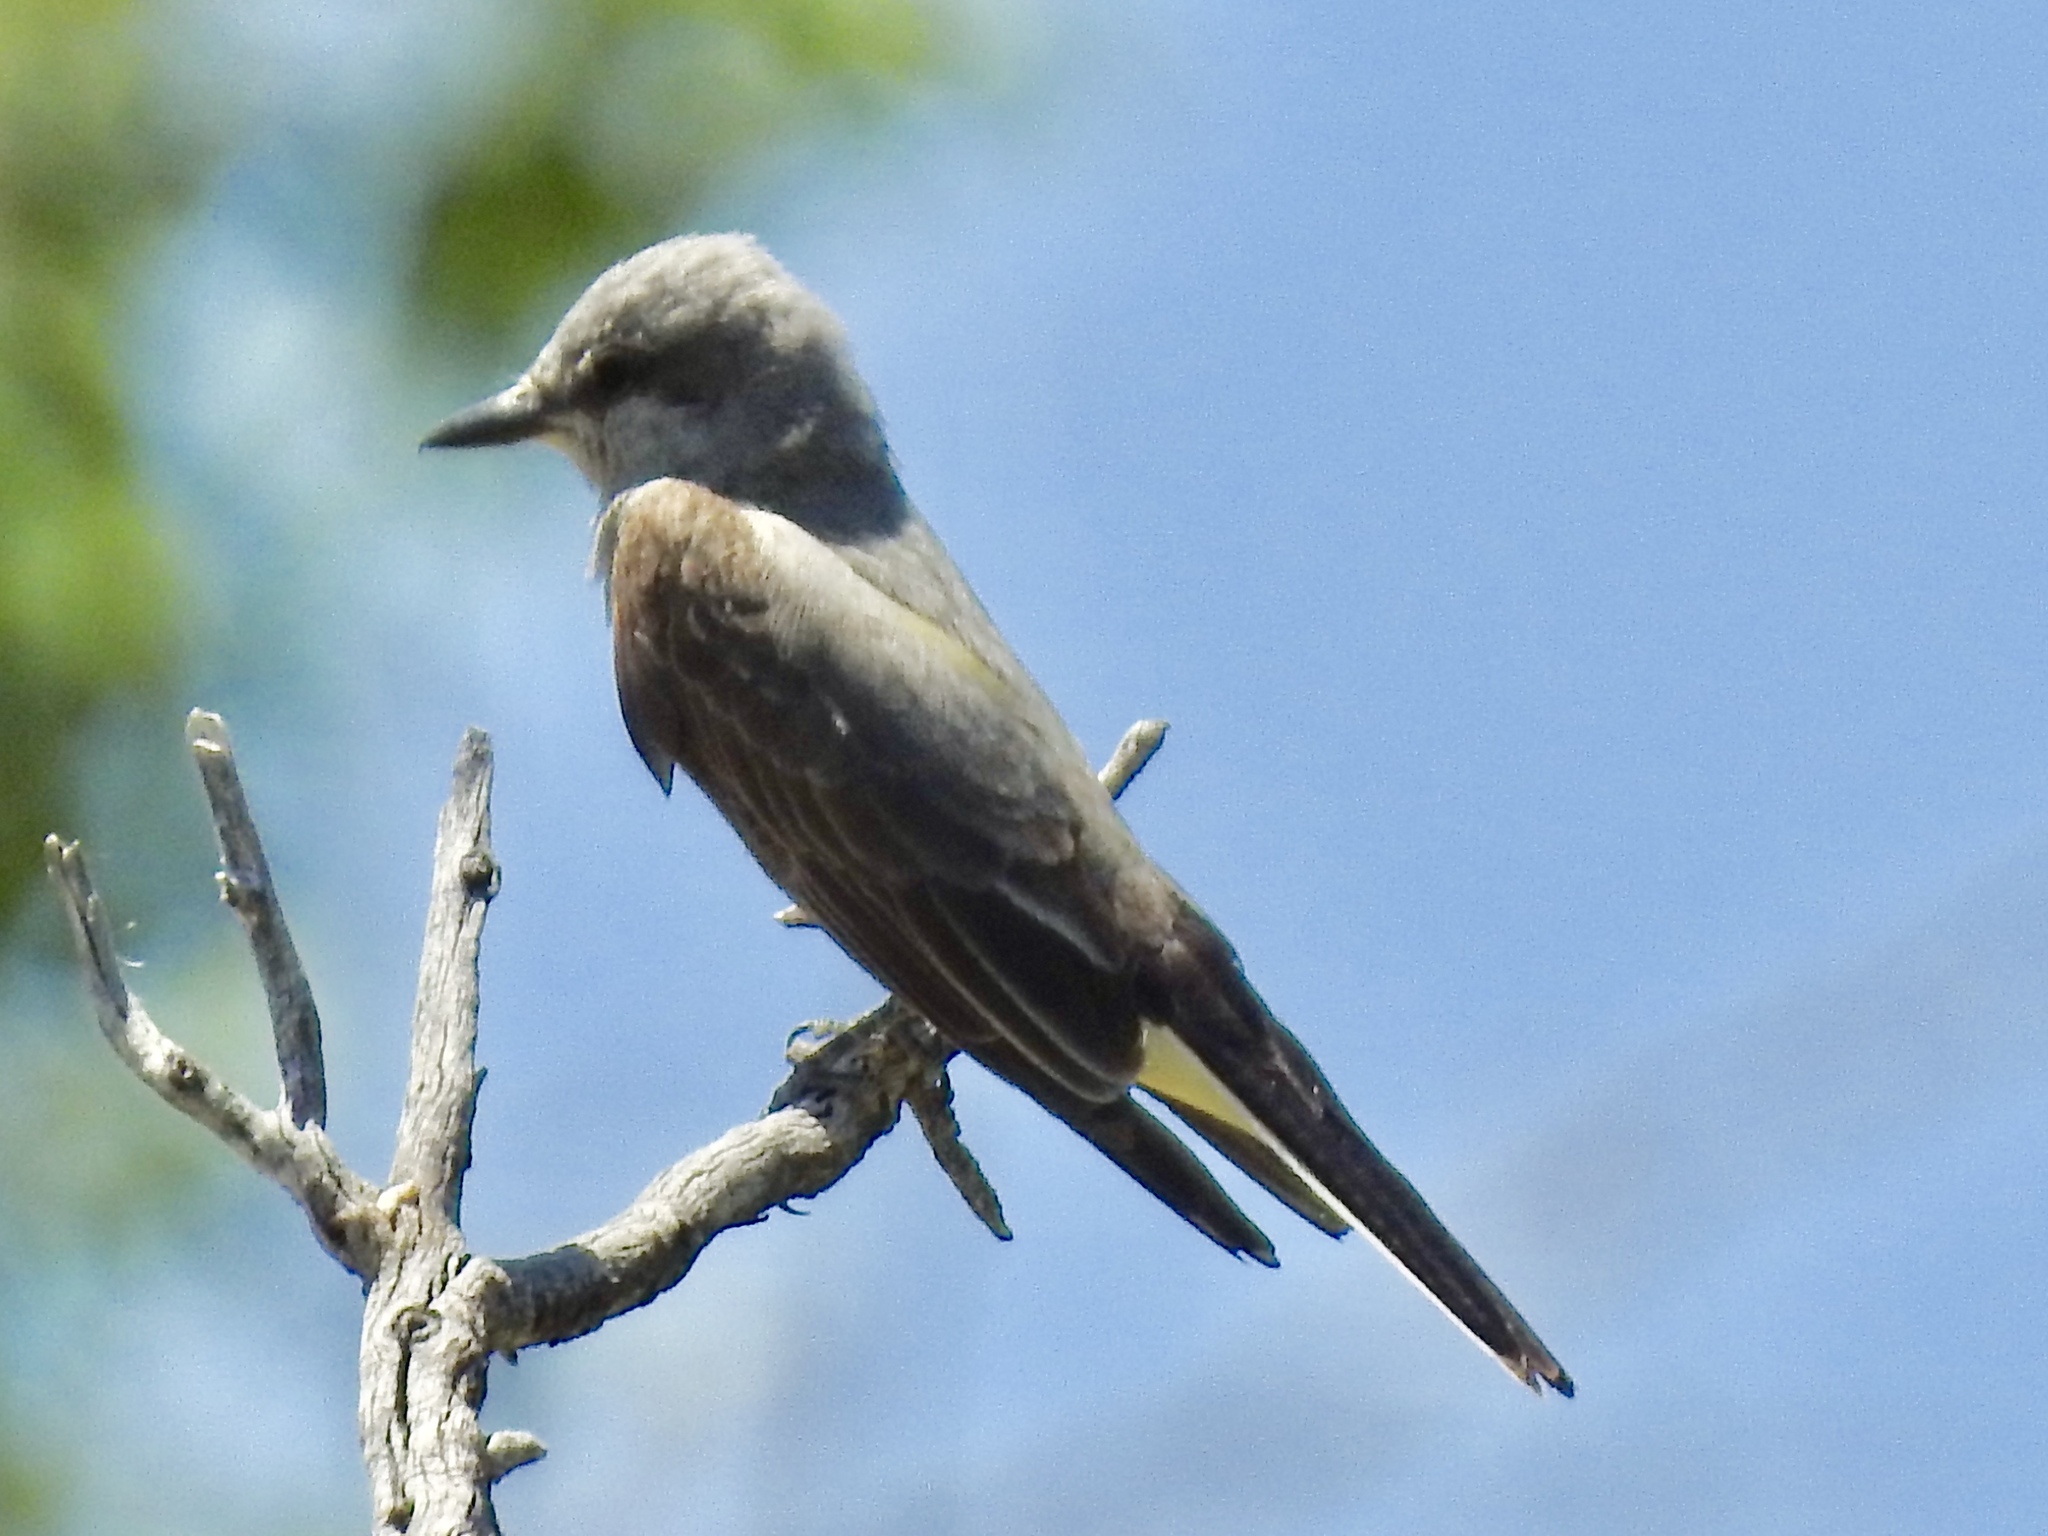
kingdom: Animalia
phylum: Chordata
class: Aves
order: Passeriformes
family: Tyrannidae
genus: Tyrannus
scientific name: Tyrannus verticalis
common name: Western kingbird
